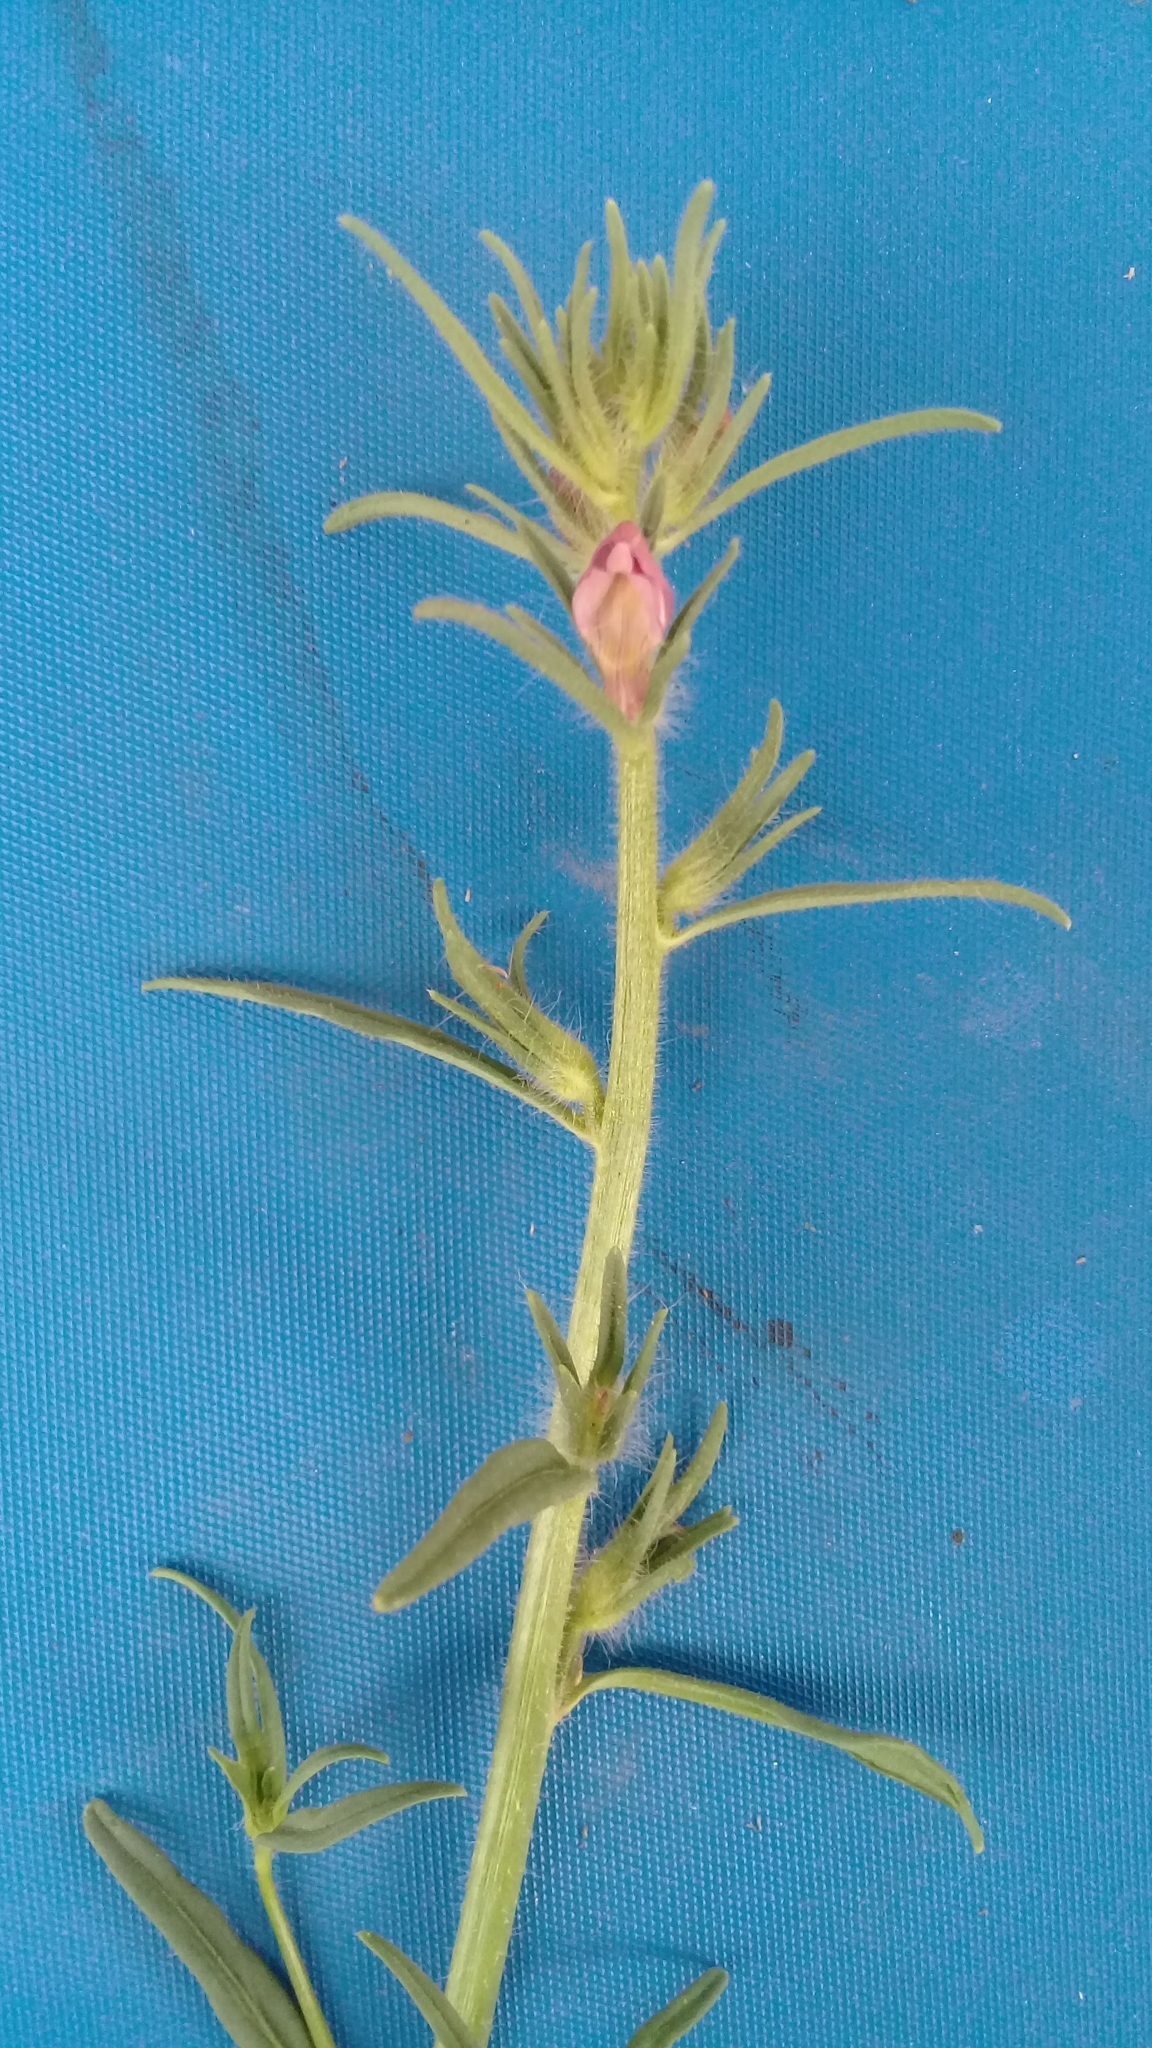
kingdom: Plantae
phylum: Tracheophyta
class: Magnoliopsida
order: Lamiales
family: Plantaginaceae
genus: Misopates
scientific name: Misopates orontium
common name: Weasel's-snout
